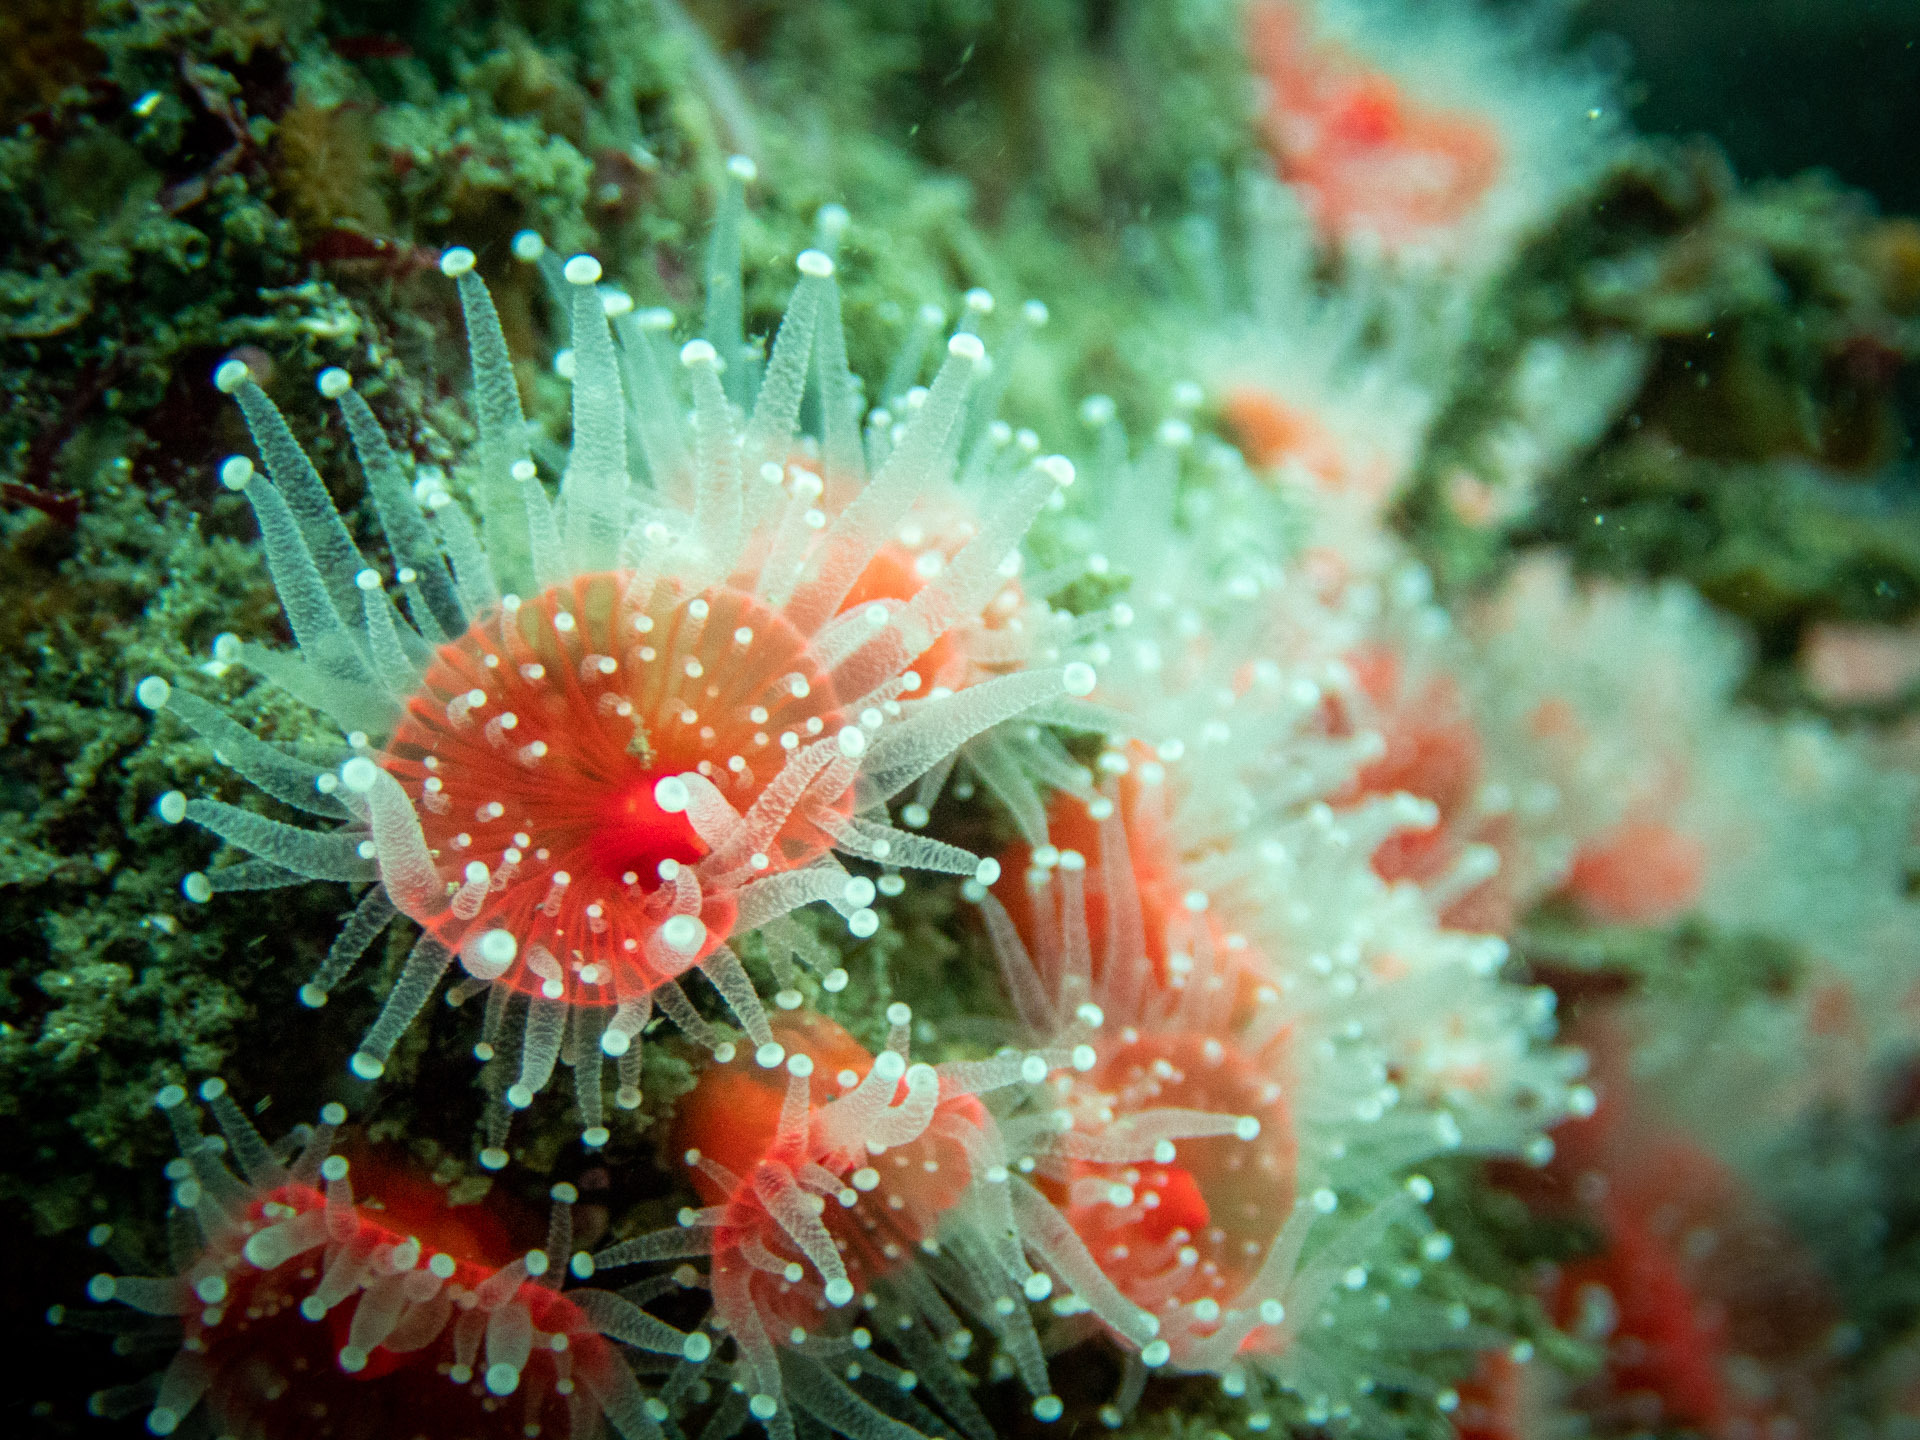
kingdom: Animalia
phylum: Cnidaria
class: Anthozoa
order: Corallimorpharia
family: Corallimorphidae
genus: Corynactis
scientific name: Corynactis californica
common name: Strawberry corallimorpharian
